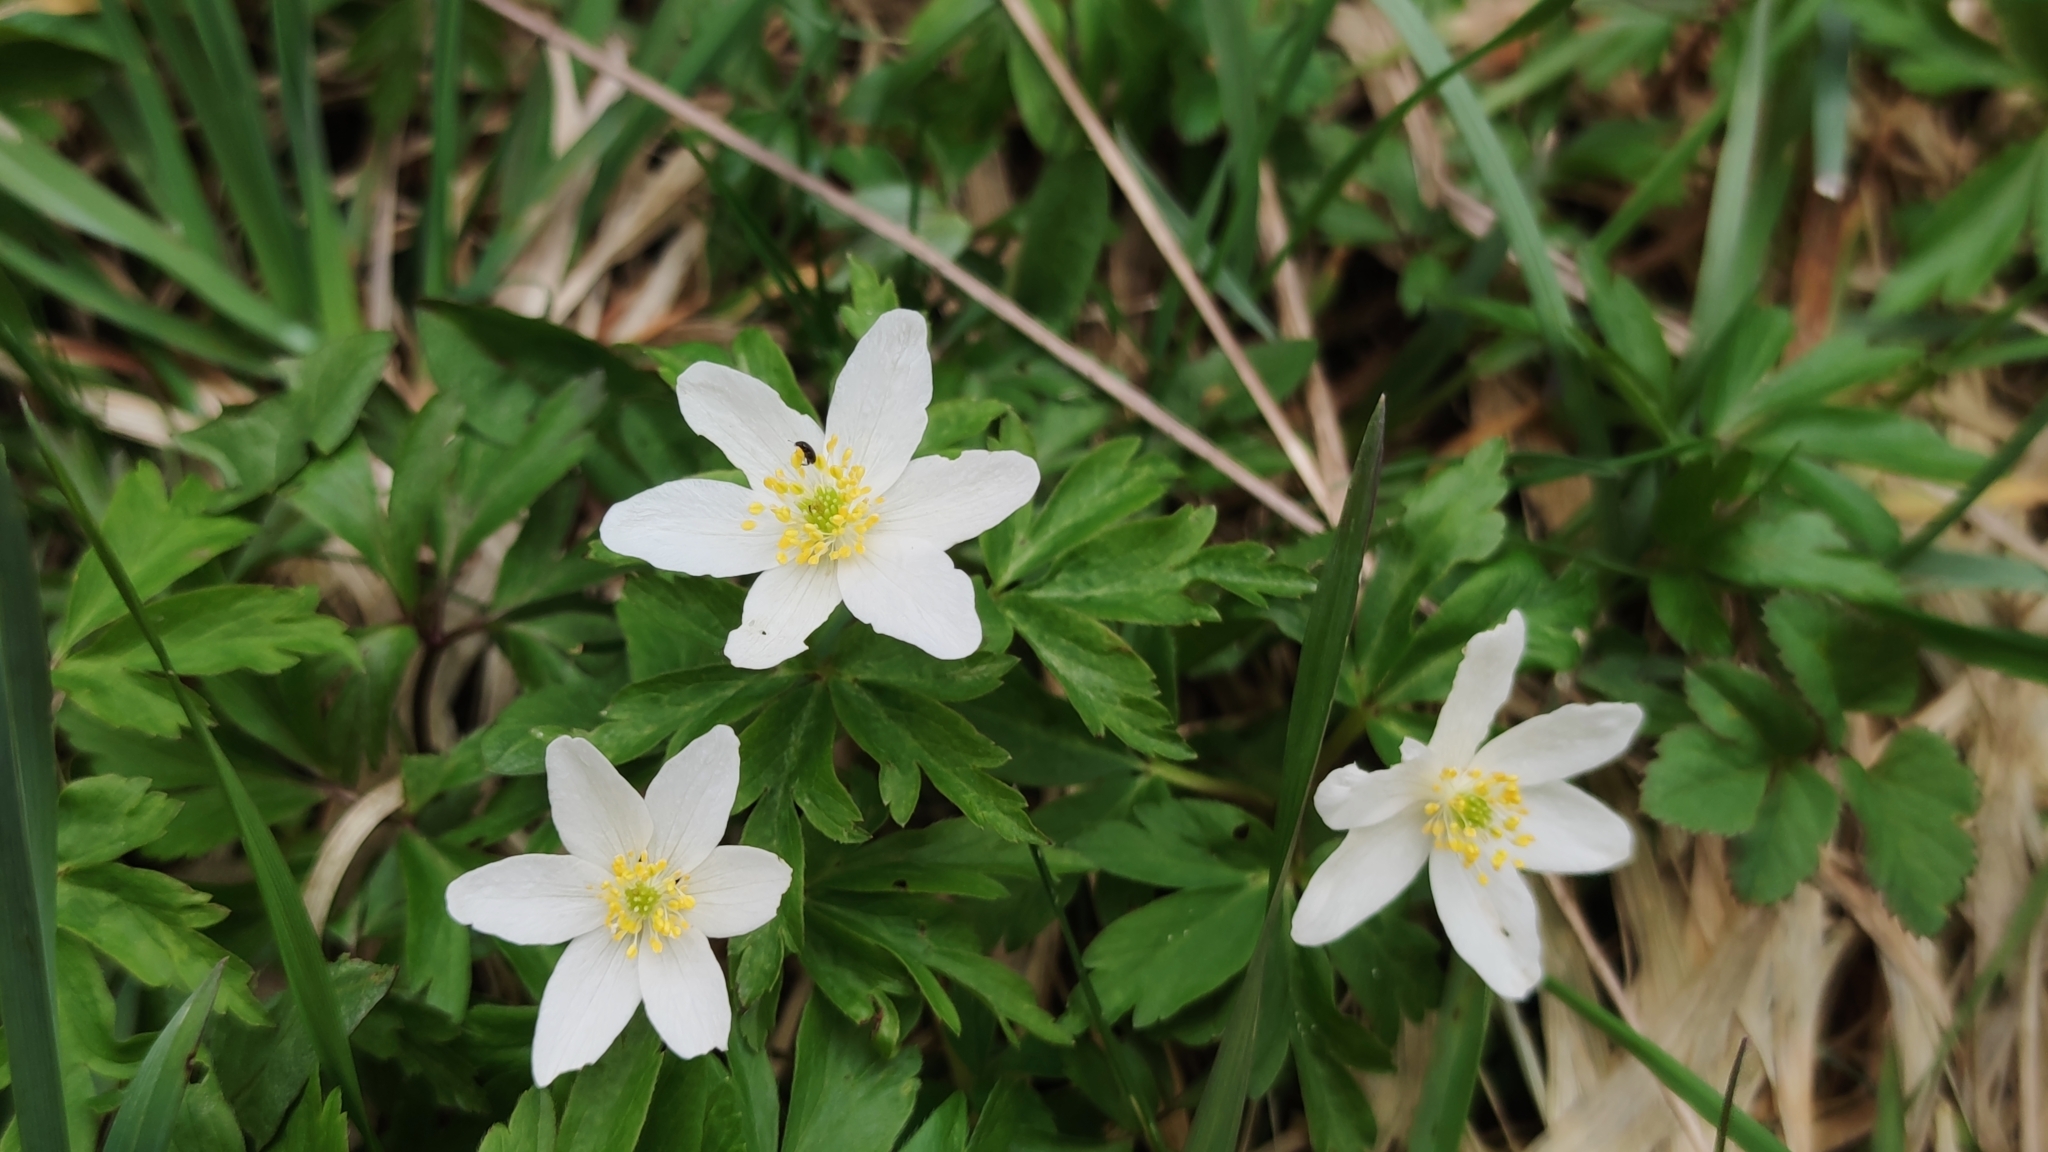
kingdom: Plantae
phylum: Tracheophyta
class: Magnoliopsida
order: Ranunculales
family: Ranunculaceae
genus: Anemone
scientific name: Anemone nemorosa
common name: Wood anemone
